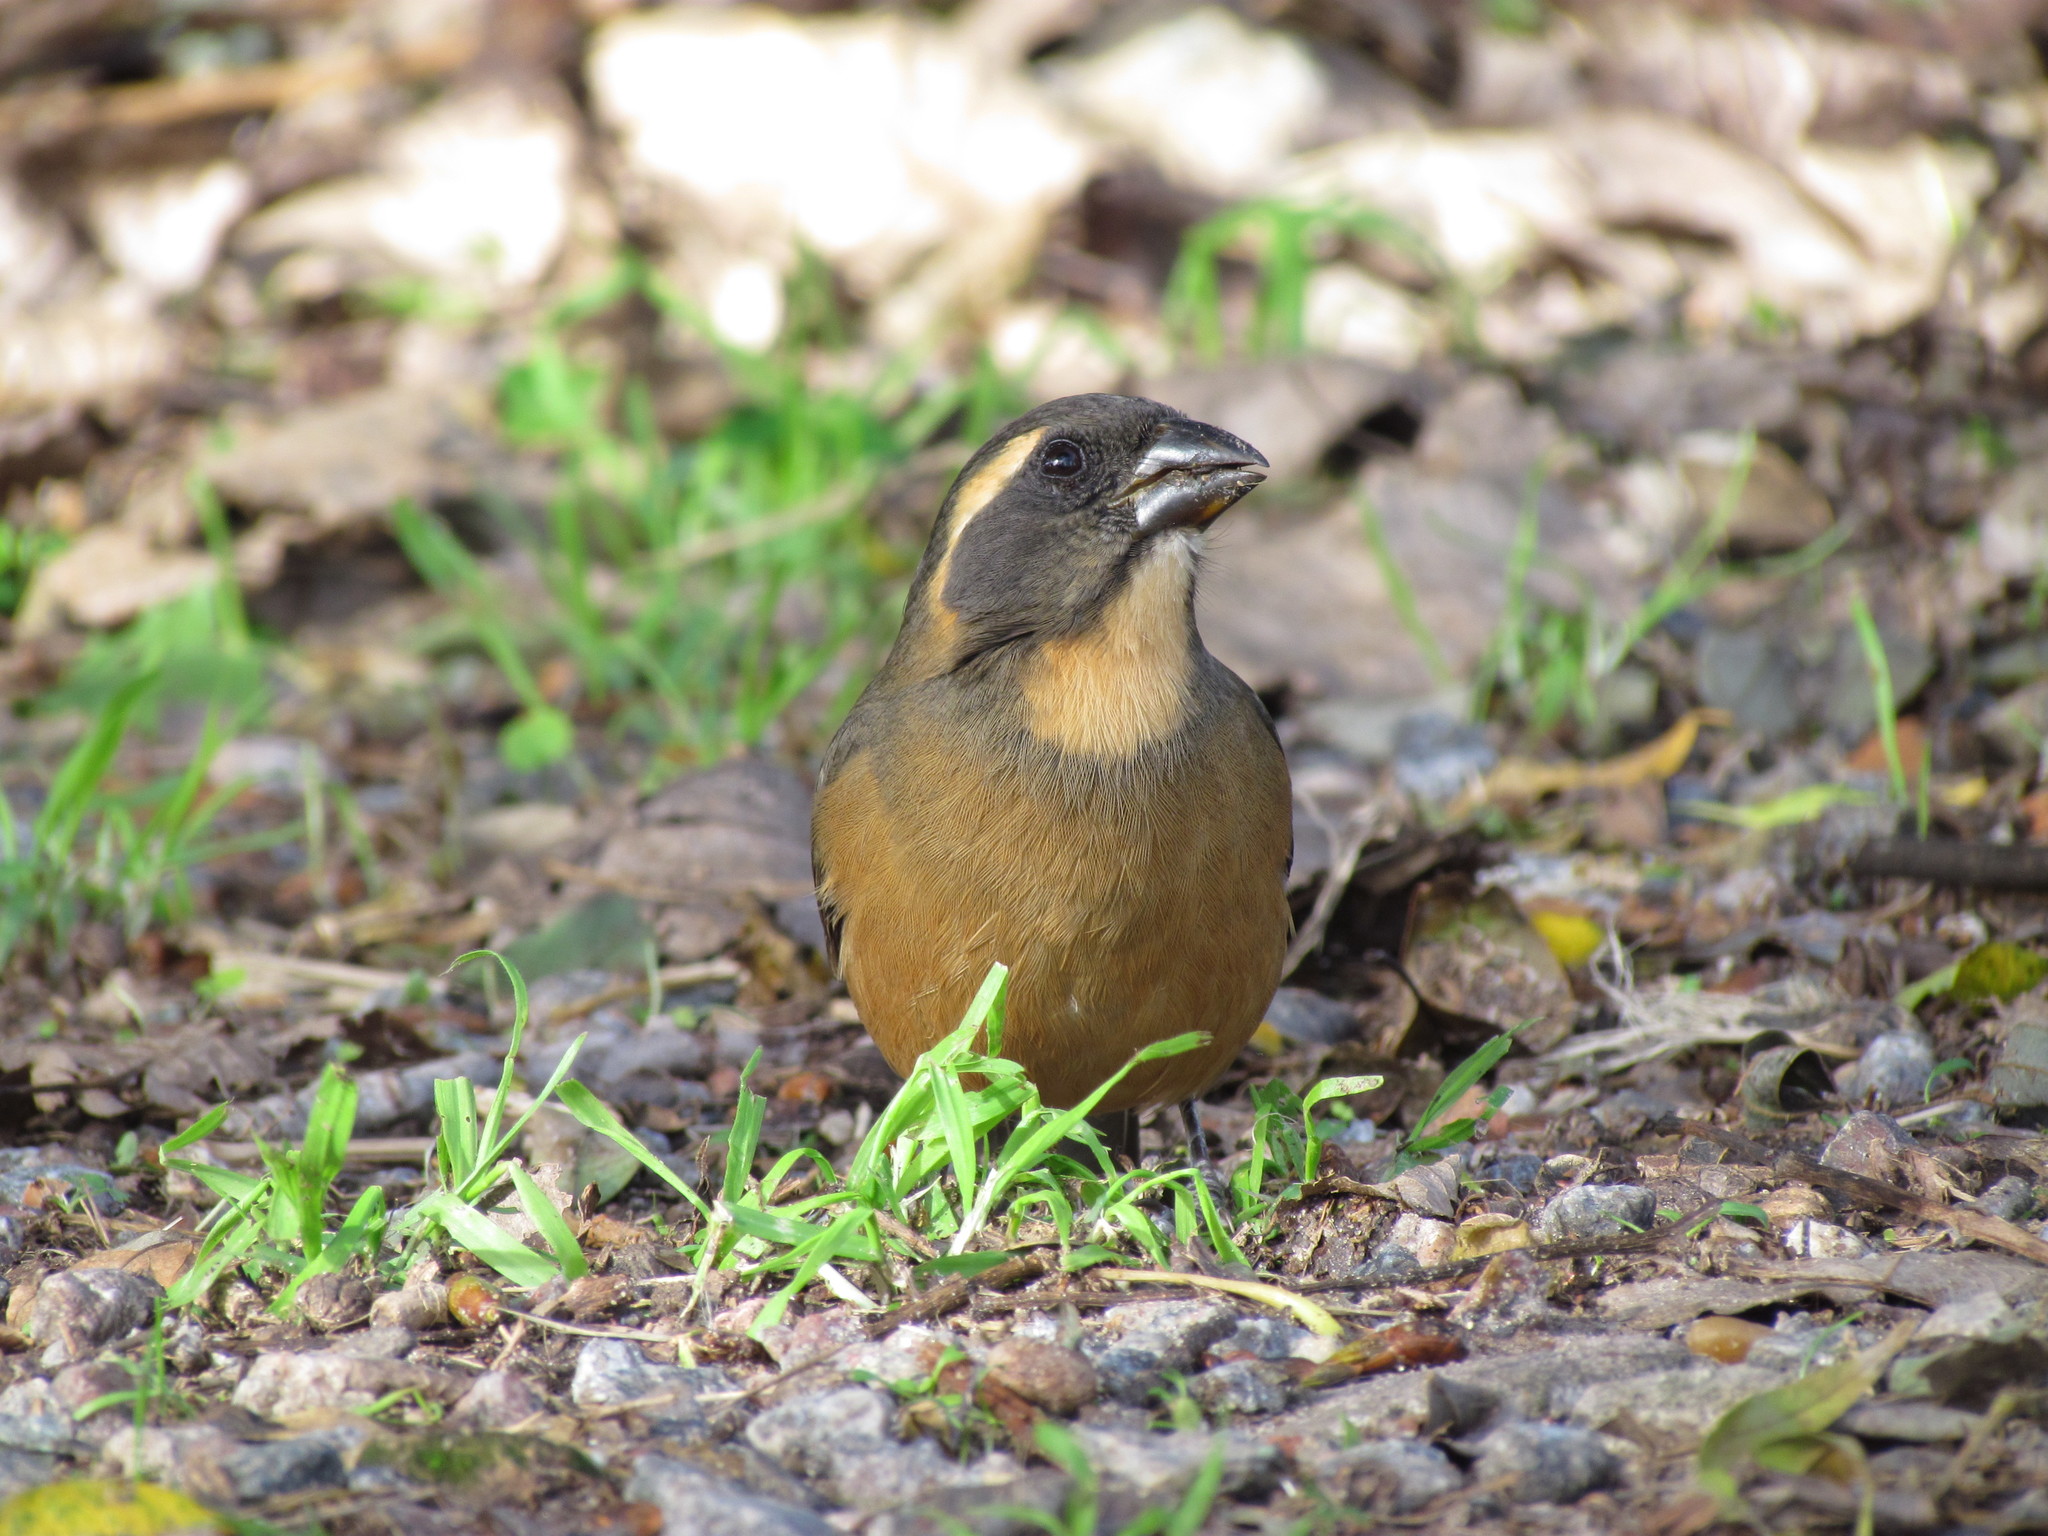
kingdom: Animalia
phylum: Chordata
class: Aves
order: Passeriformes
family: Thraupidae
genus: Saltator
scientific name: Saltator aurantiirostris
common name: Golden-billed saltator
